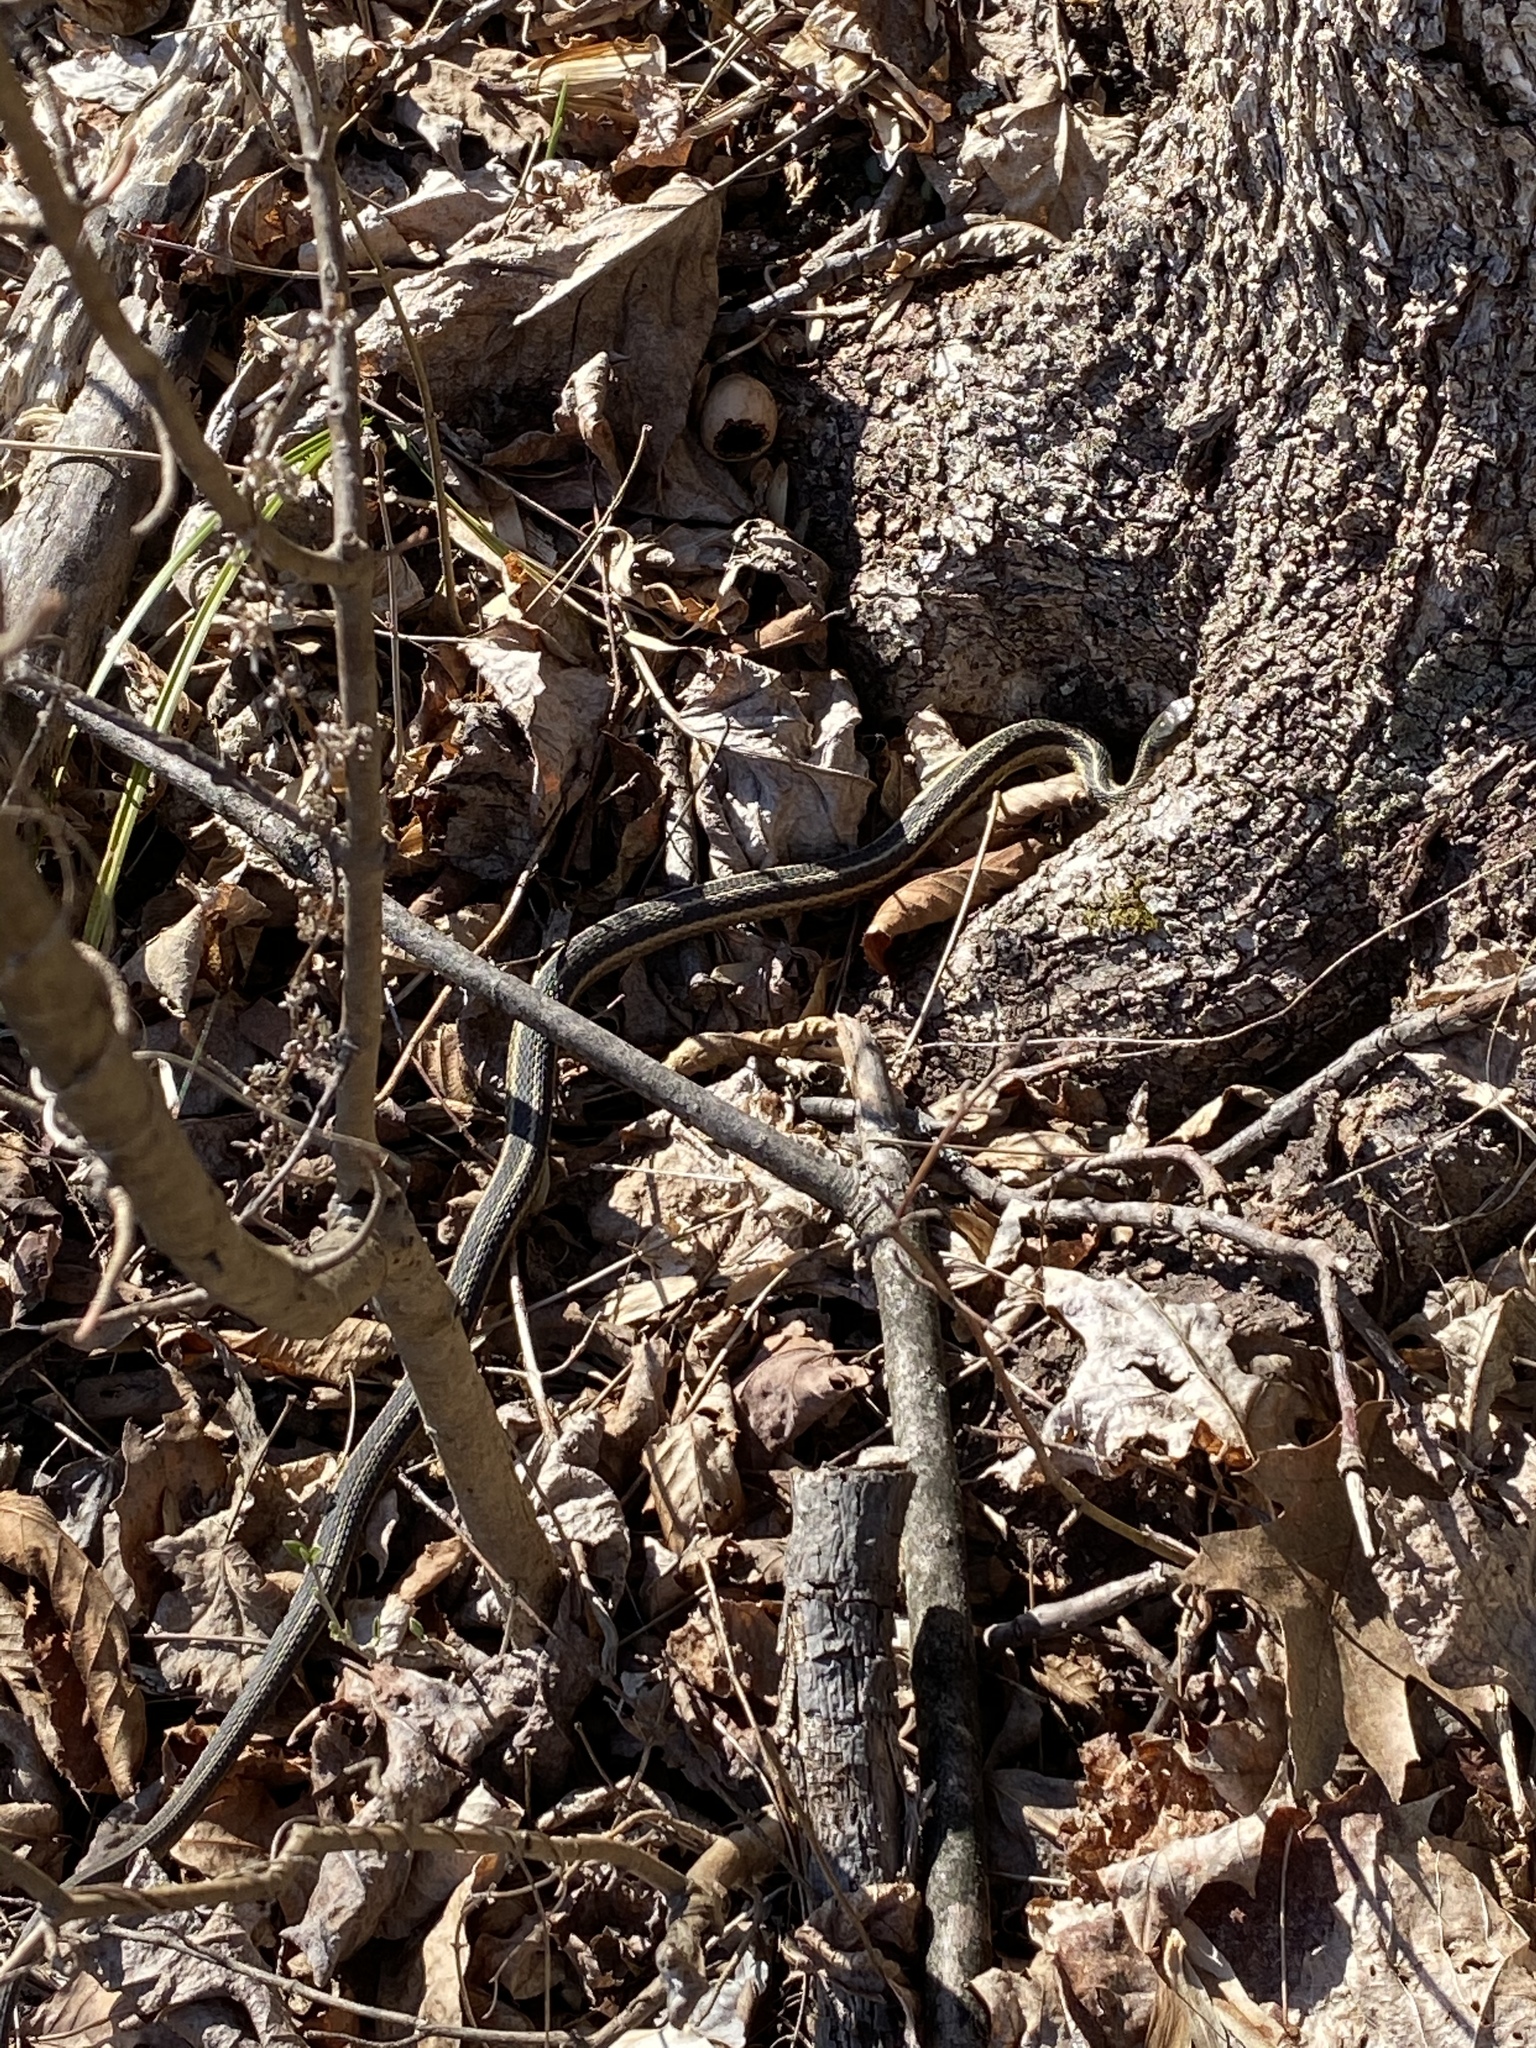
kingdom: Animalia
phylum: Chordata
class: Squamata
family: Colubridae
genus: Thamnophis
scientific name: Thamnophis sirtalis
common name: Common garter snake
